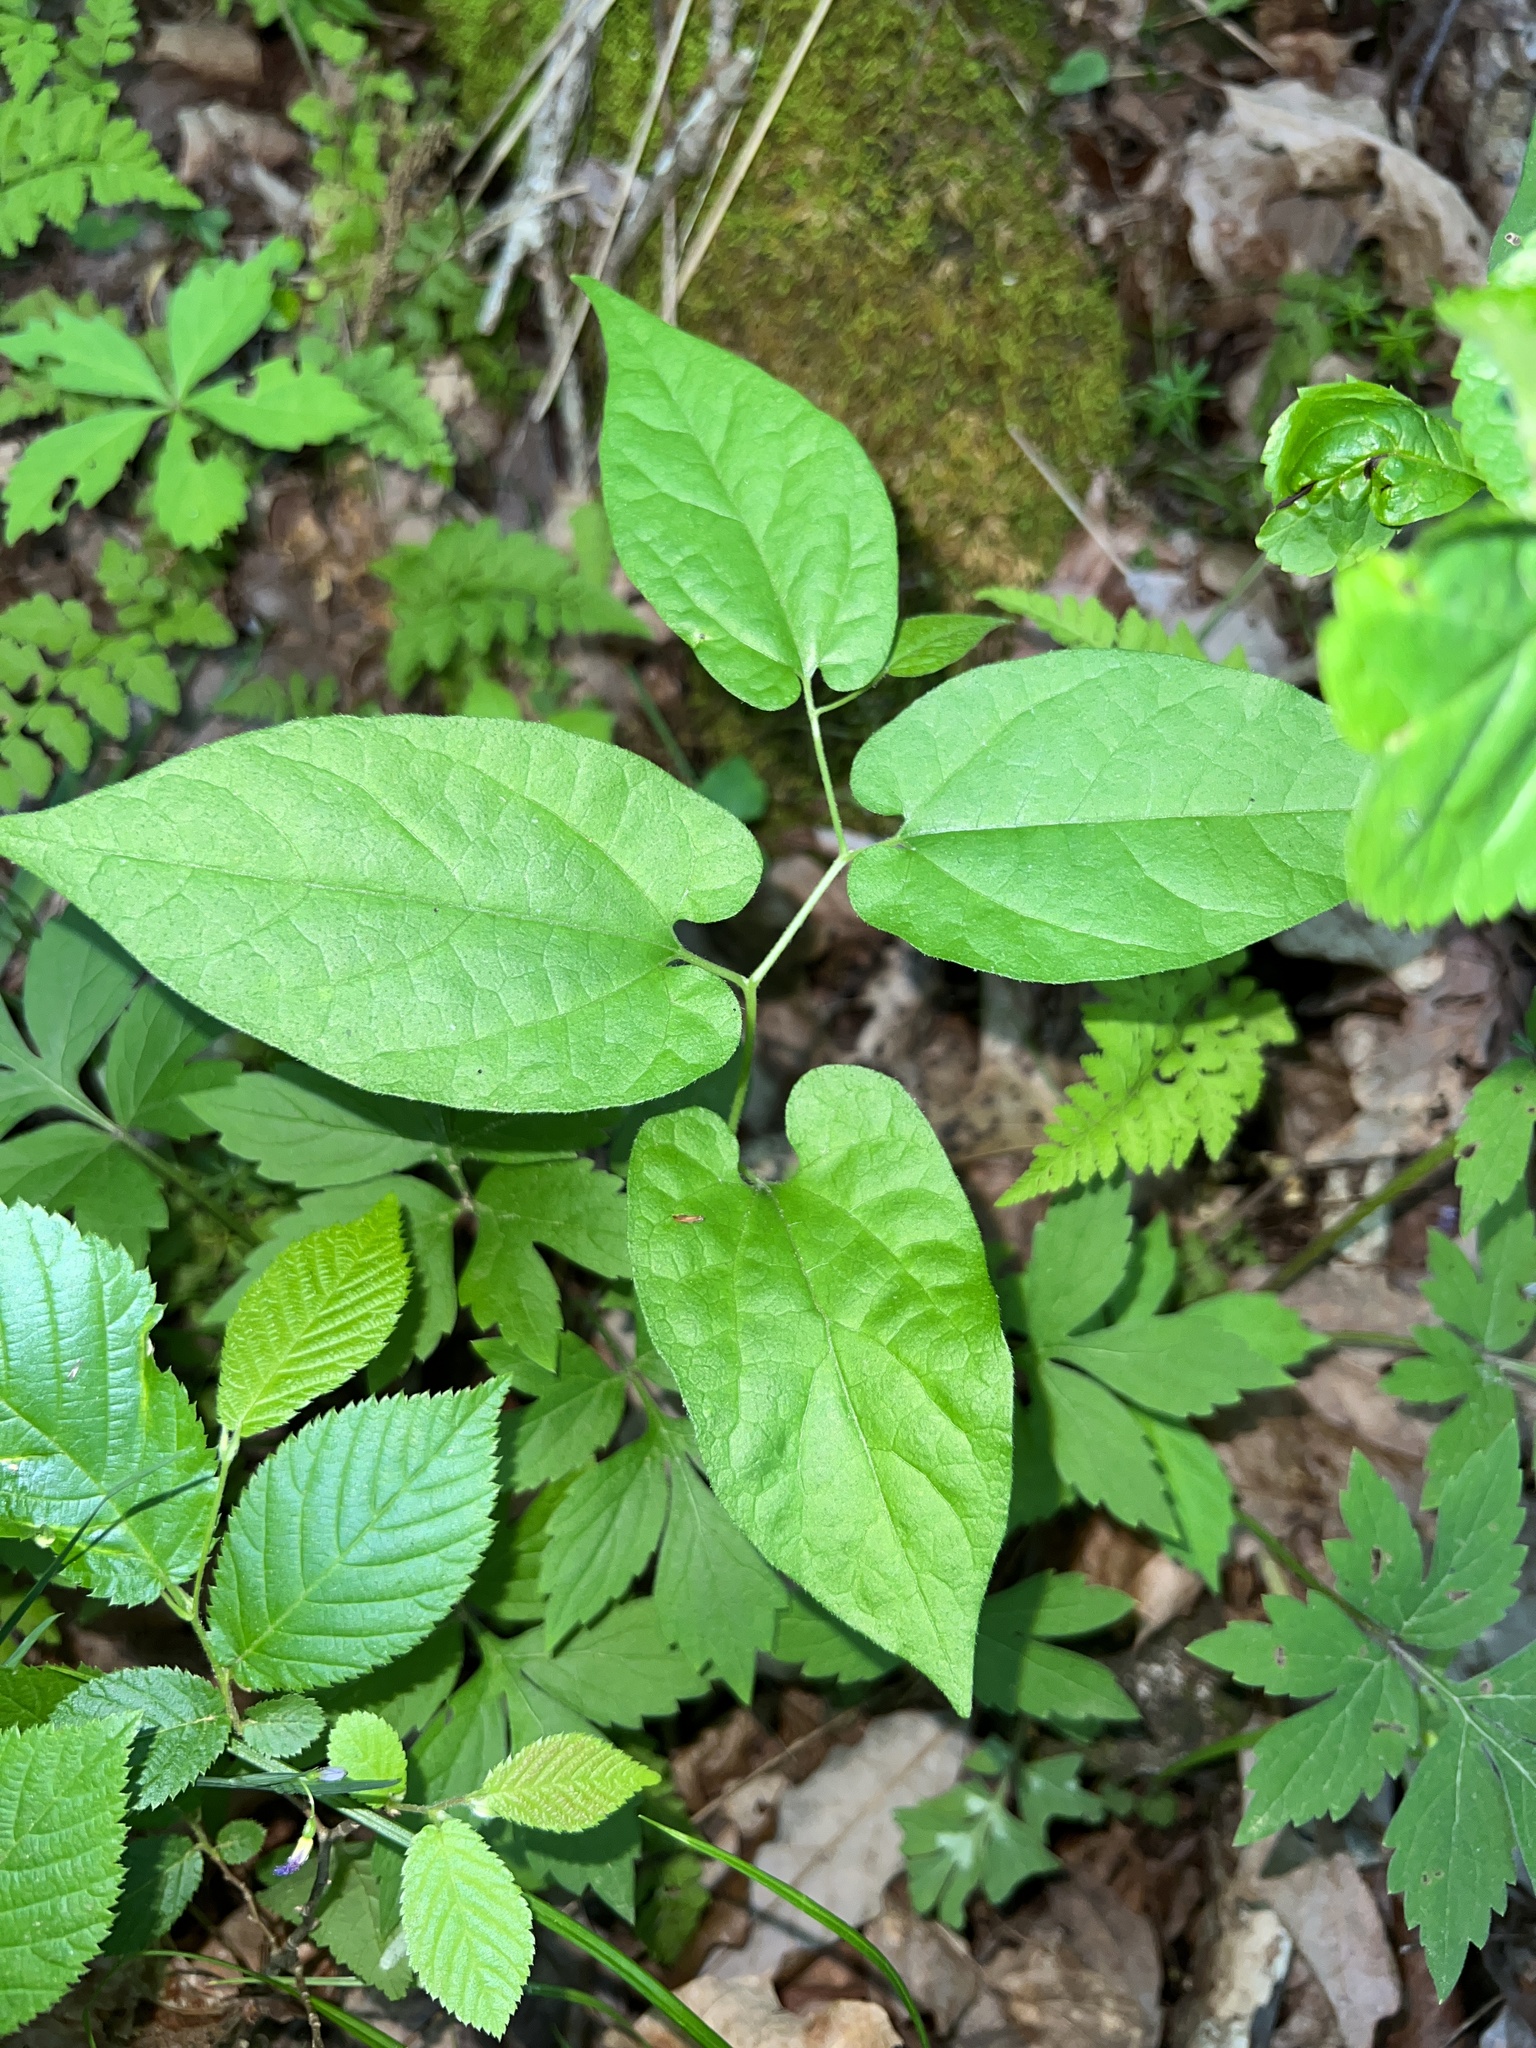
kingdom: Plantae
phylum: Tracheophyta
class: Magnoliopsida
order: Piperales
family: Aristolochiaceae
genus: Endodeca
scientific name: Endodeca serpentaria
